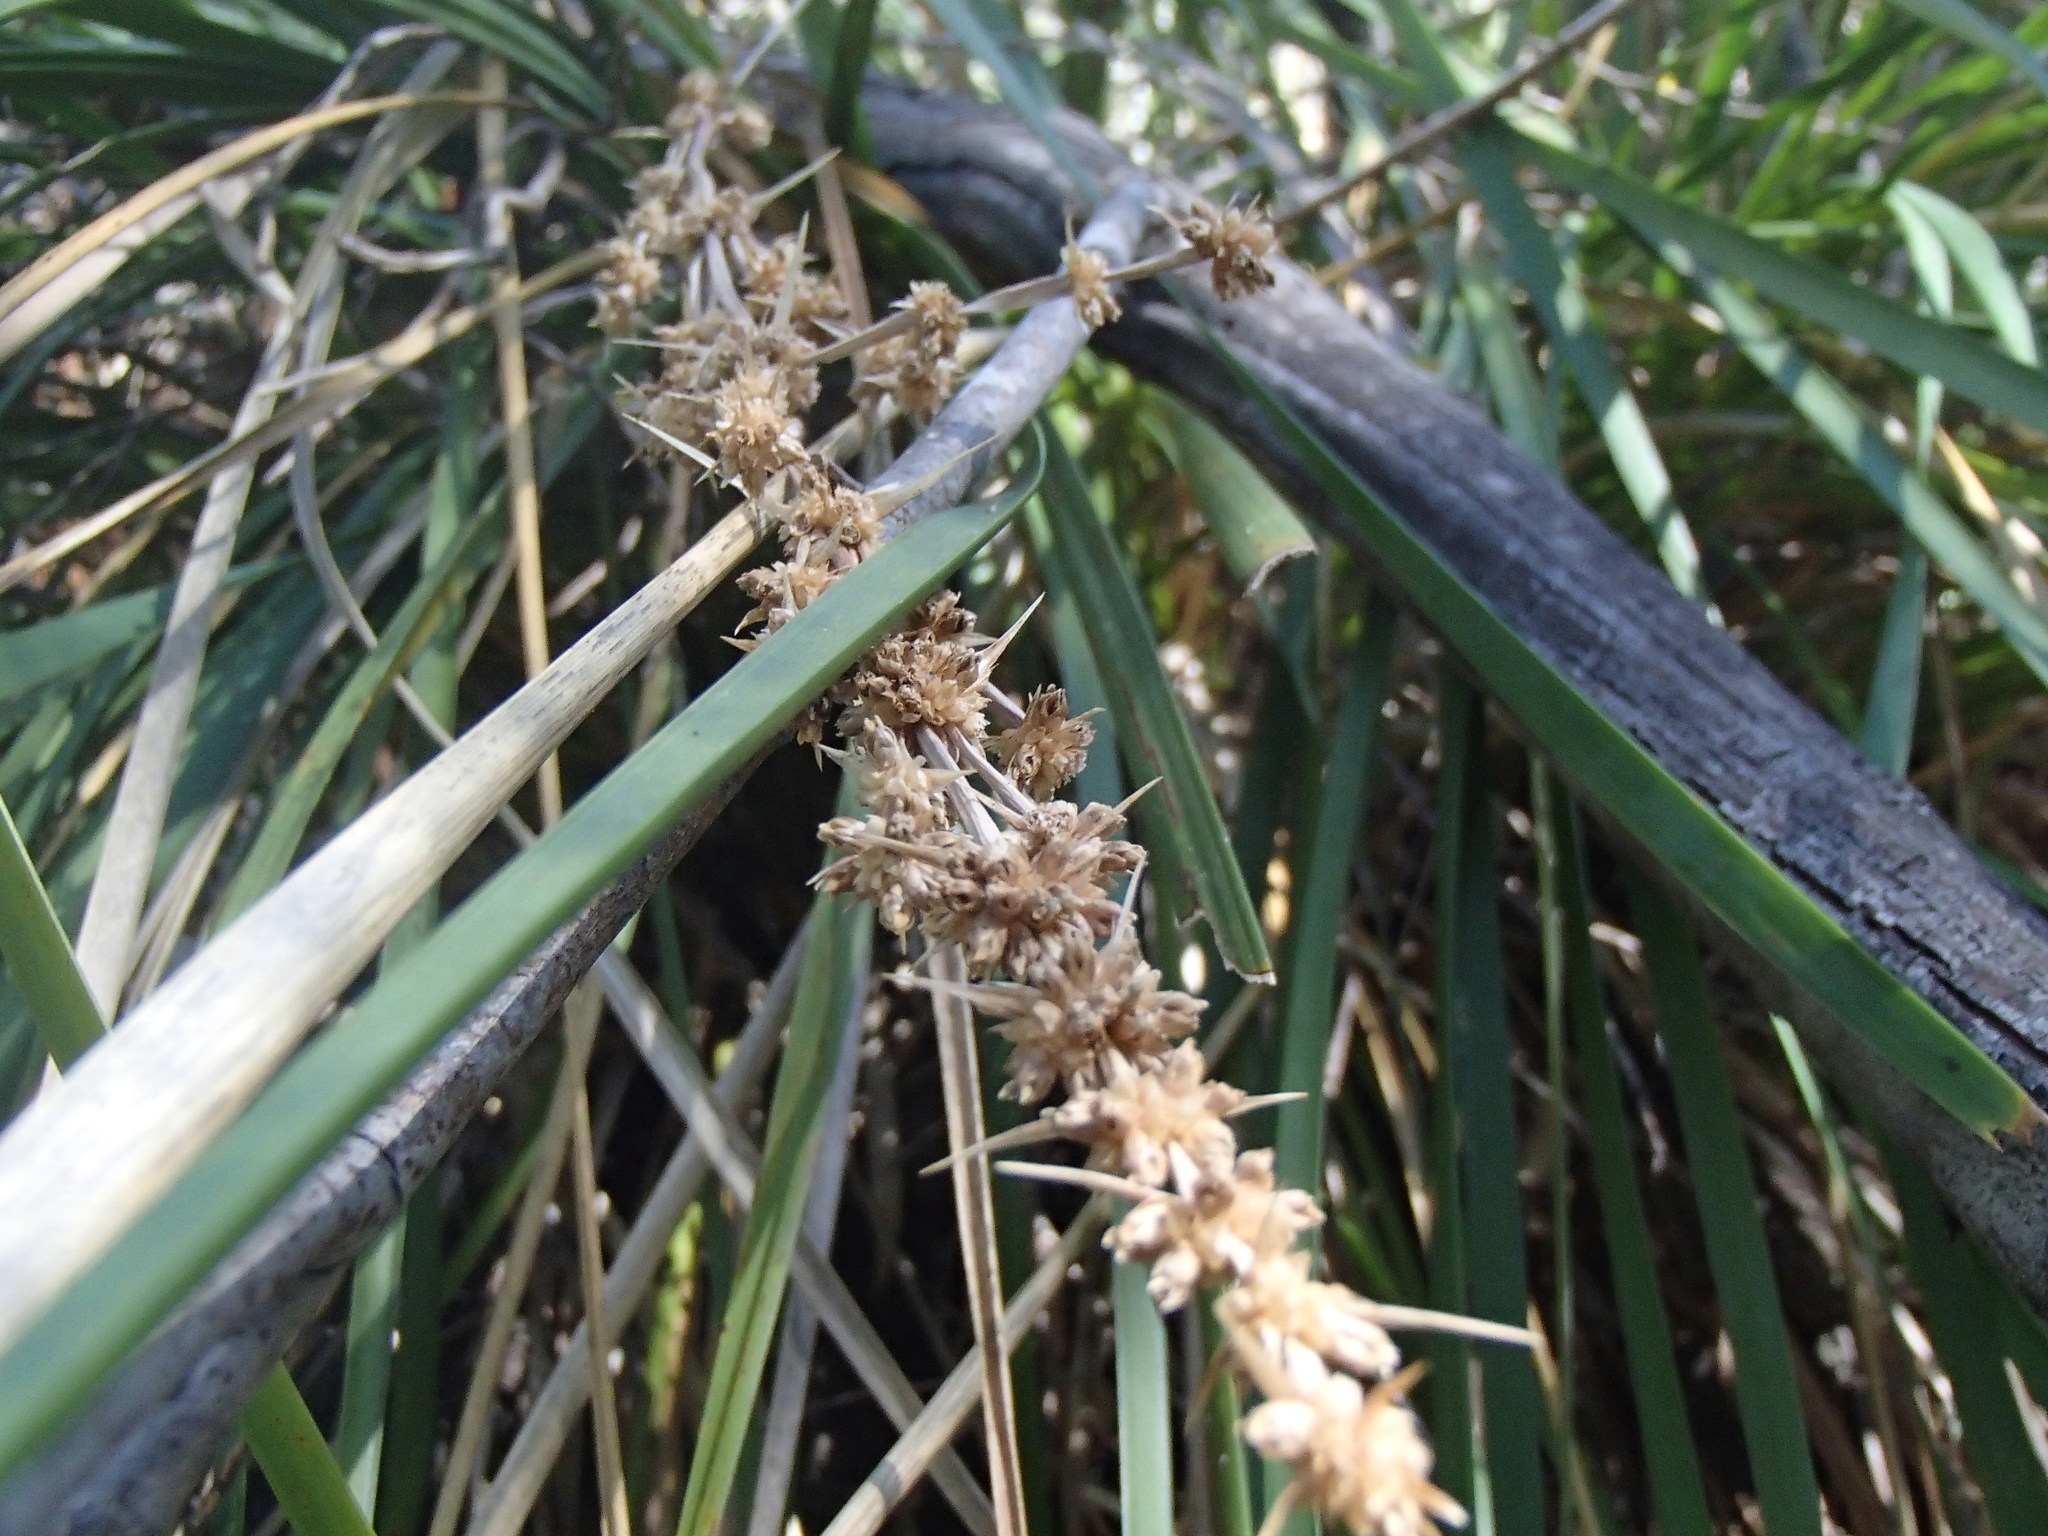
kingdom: Plantae
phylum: Tracheophyta
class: Liliopsida
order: Asparagales
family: Asparagaceae
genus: Lomandra
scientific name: Lomandra longifolia
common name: Longleaf mat-rush
